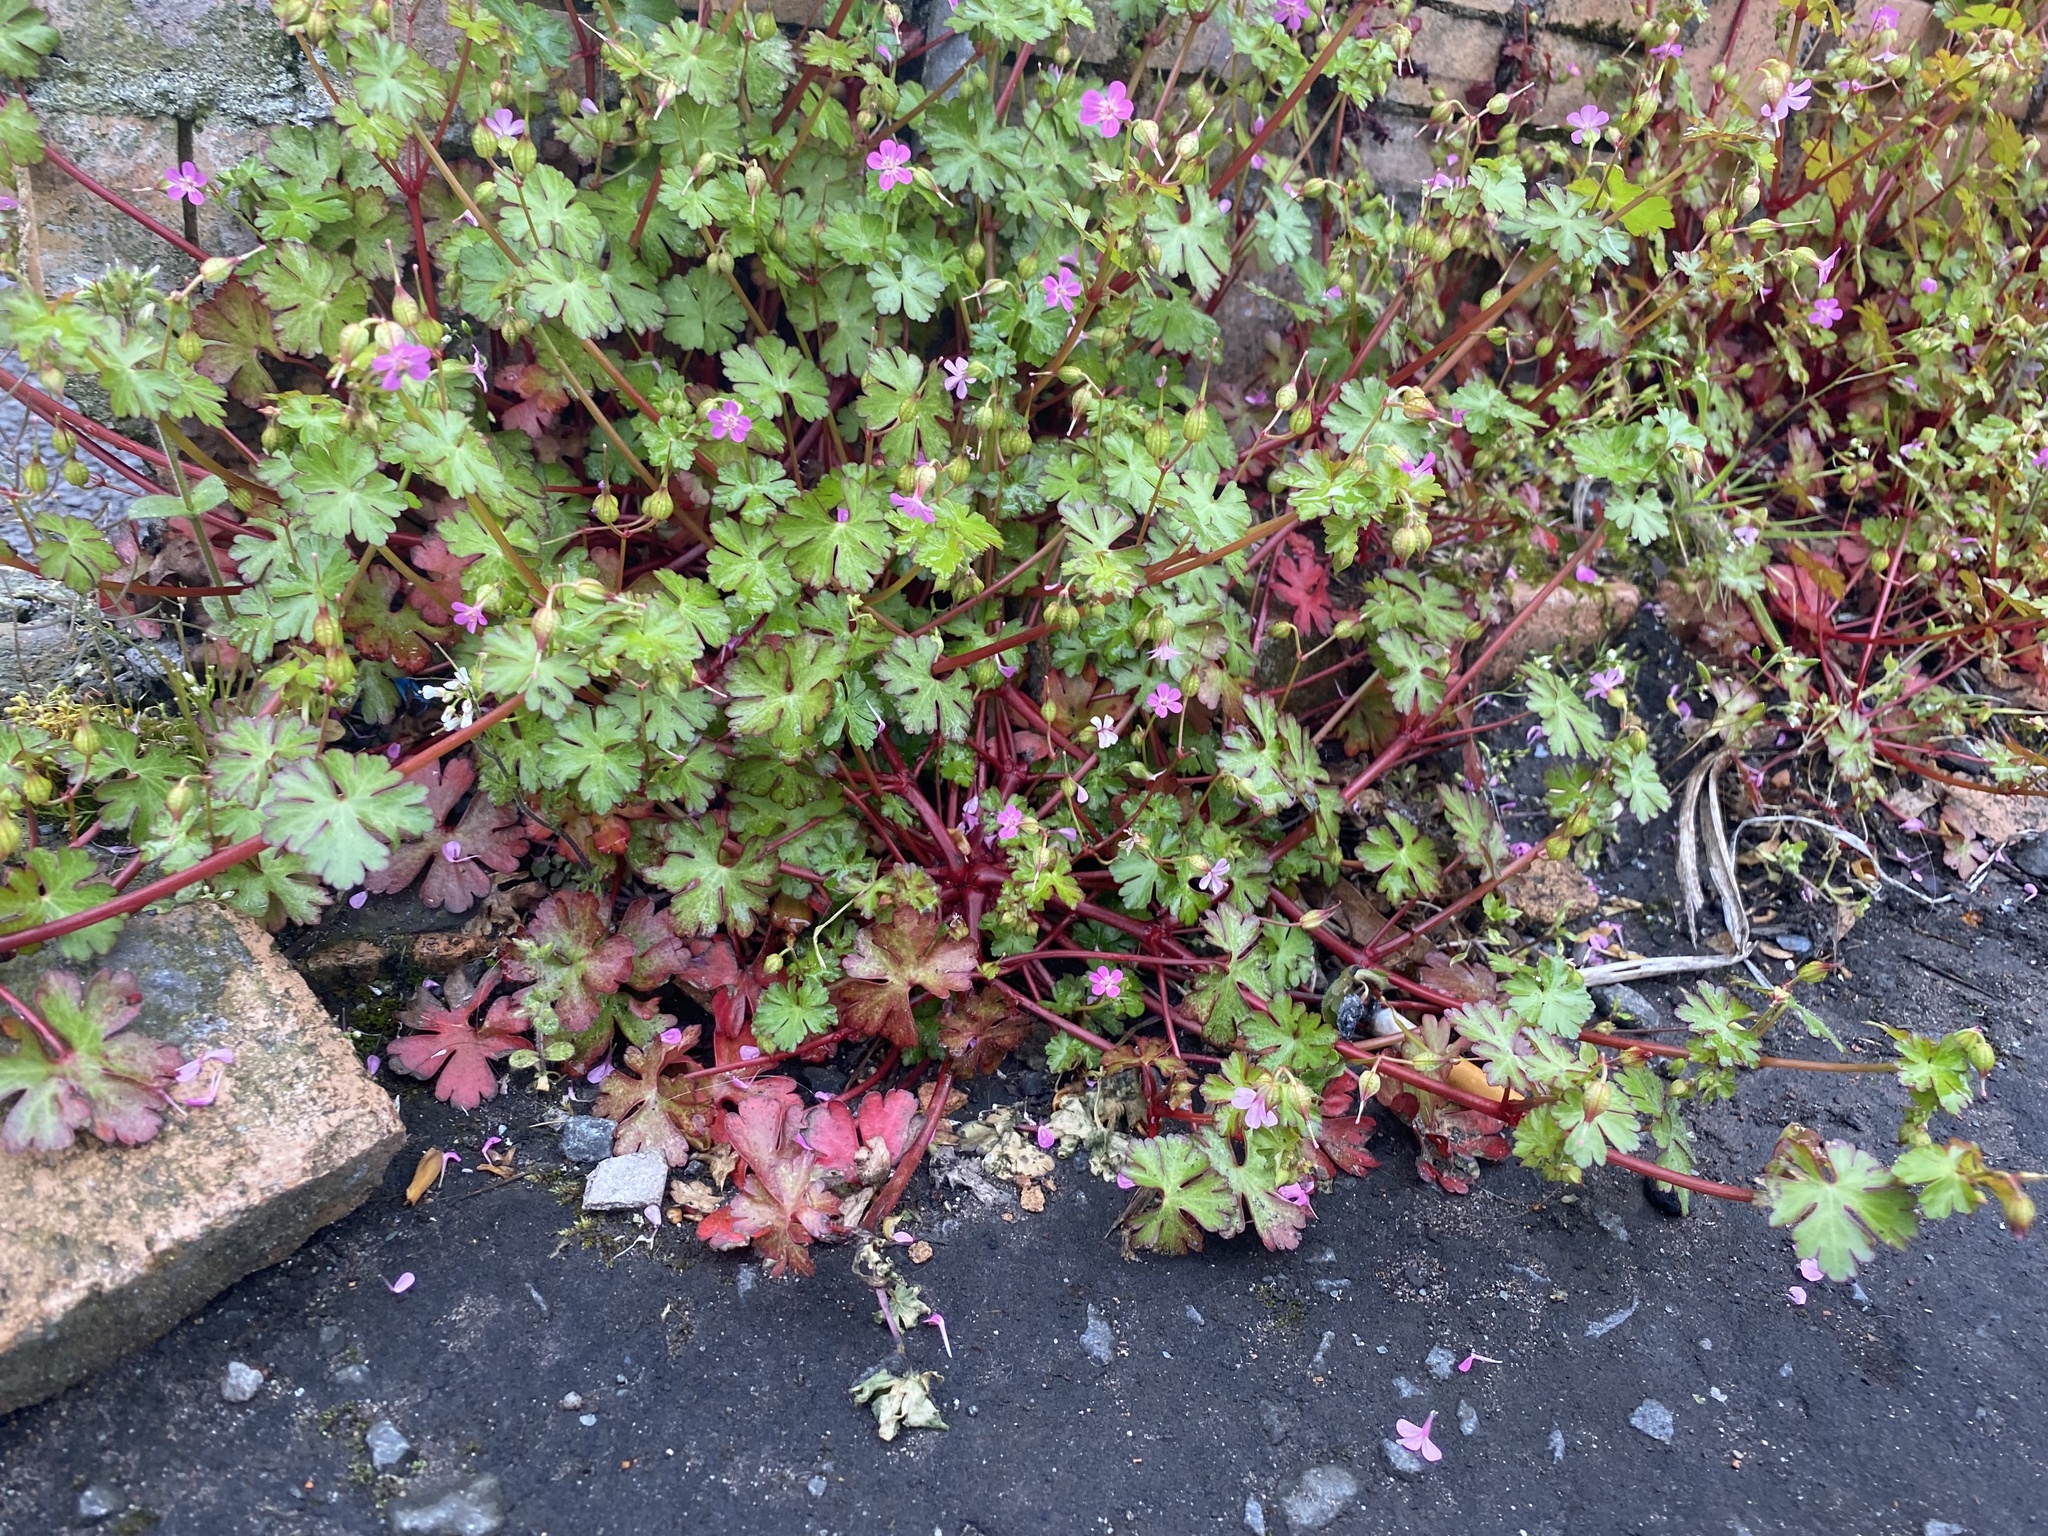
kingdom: Plantae
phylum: Tracheophyta
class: Magnoliopsida
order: Geraniales
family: Geraniaceae
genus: Geranium
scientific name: Geranium lucidum
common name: Shining crane's-bill
